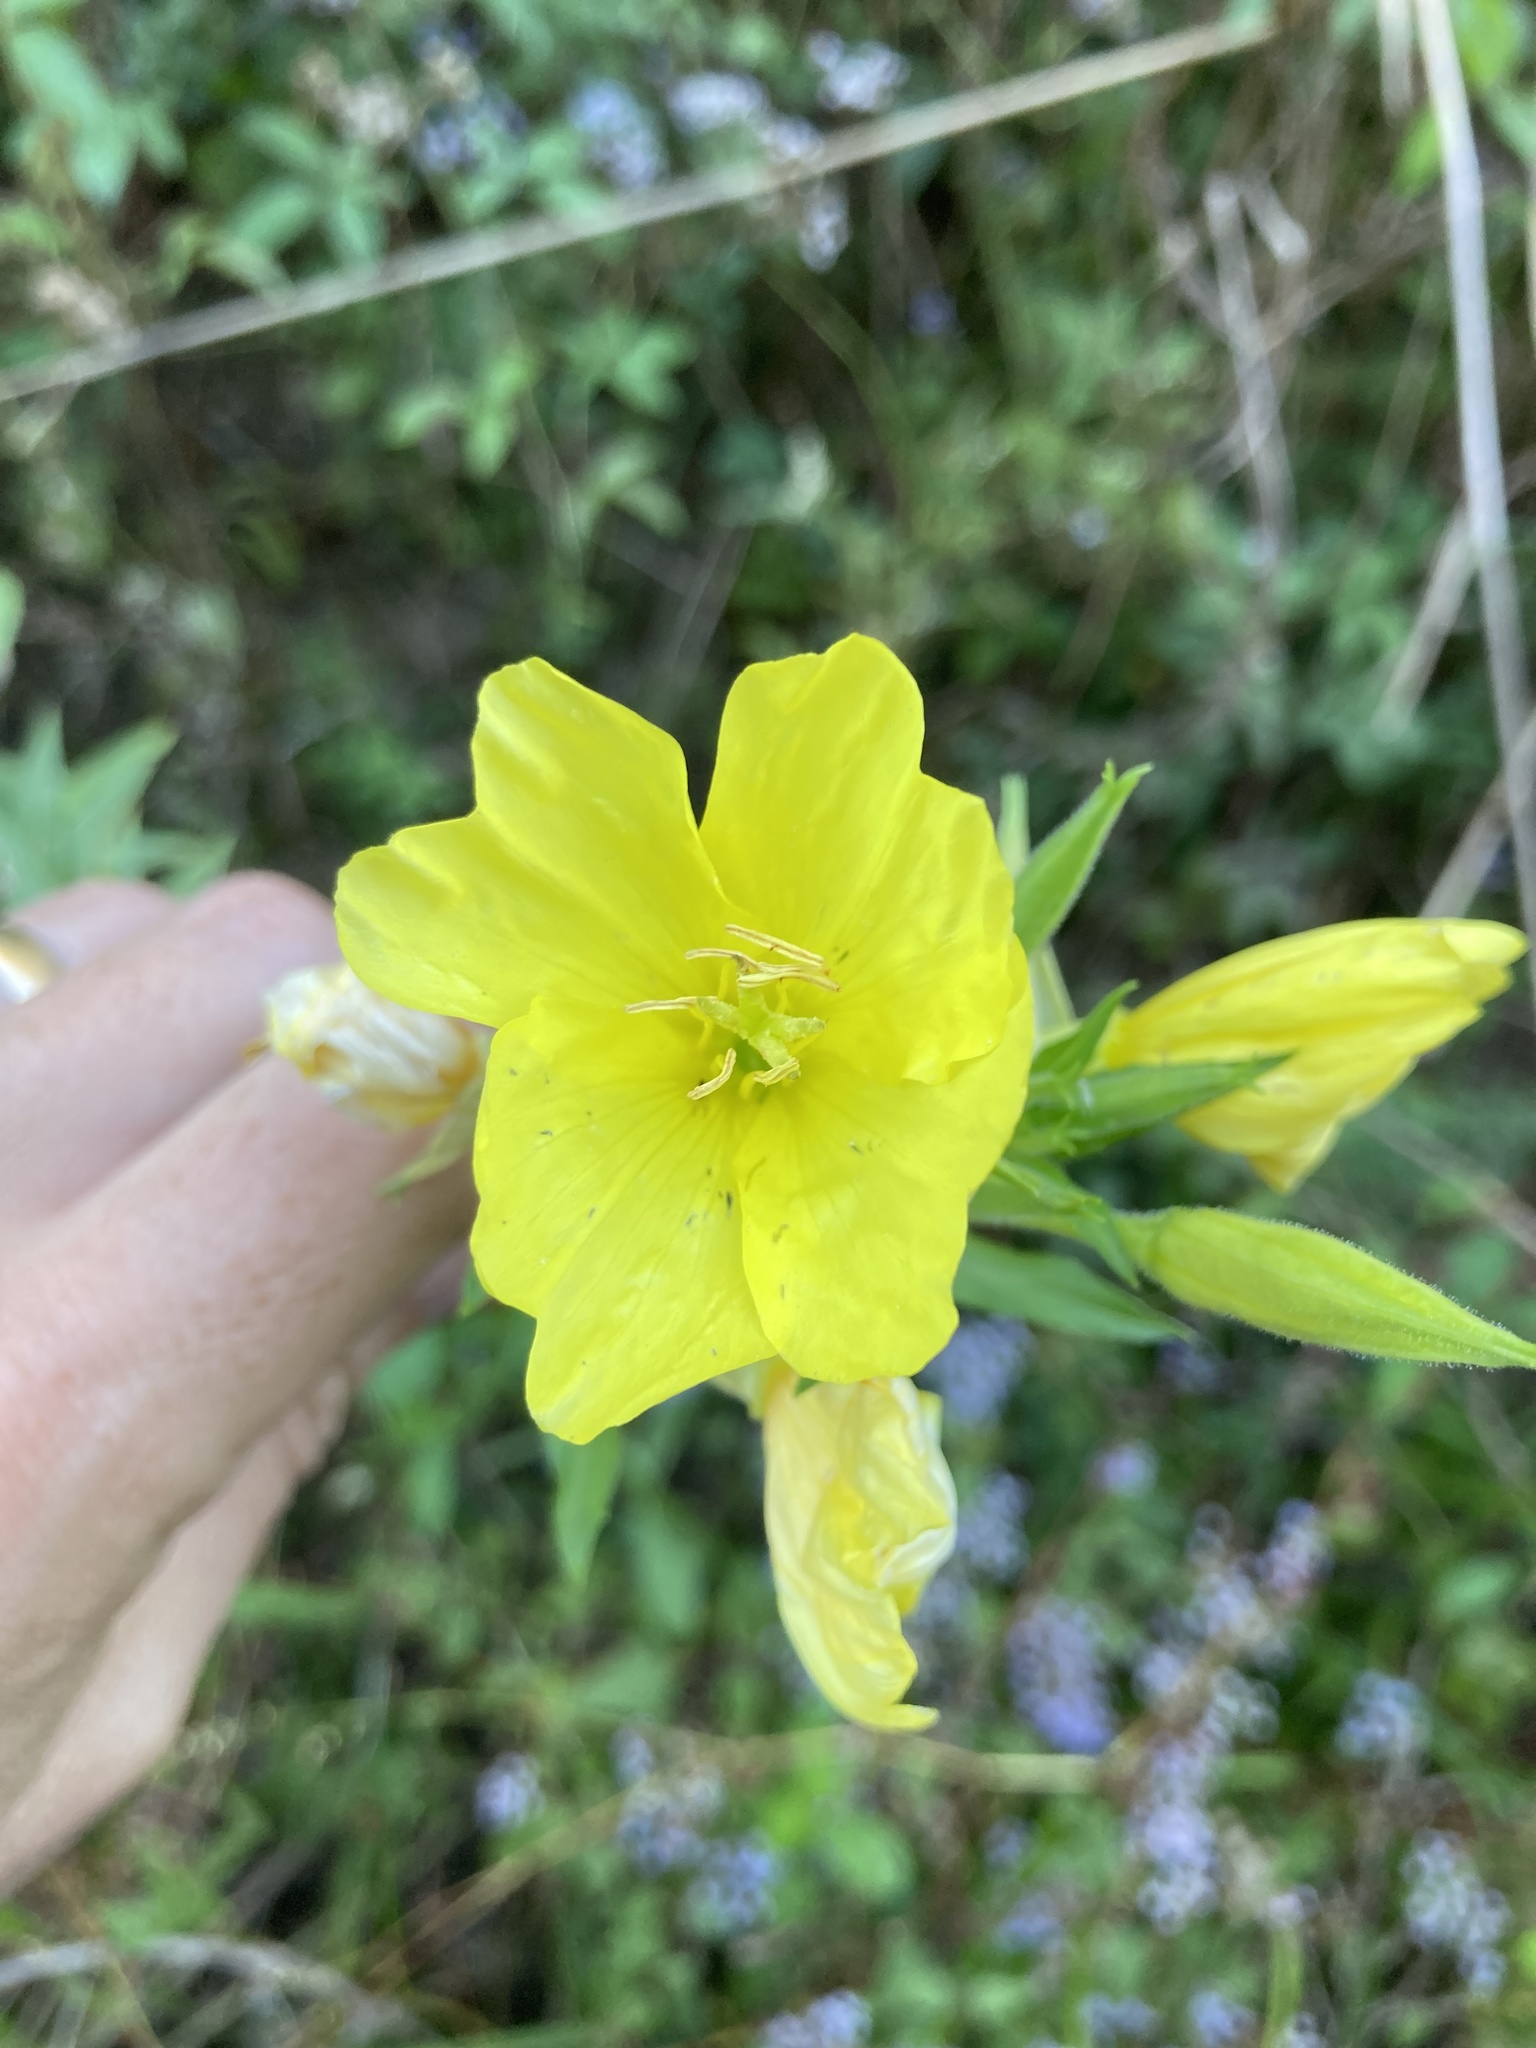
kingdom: Plantae
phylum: Tracheophyta
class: Magnoliopsida
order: Myrtales
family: Onagraceae
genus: Oenothera
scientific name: Oenothera biennis
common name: Common evening-primrose
